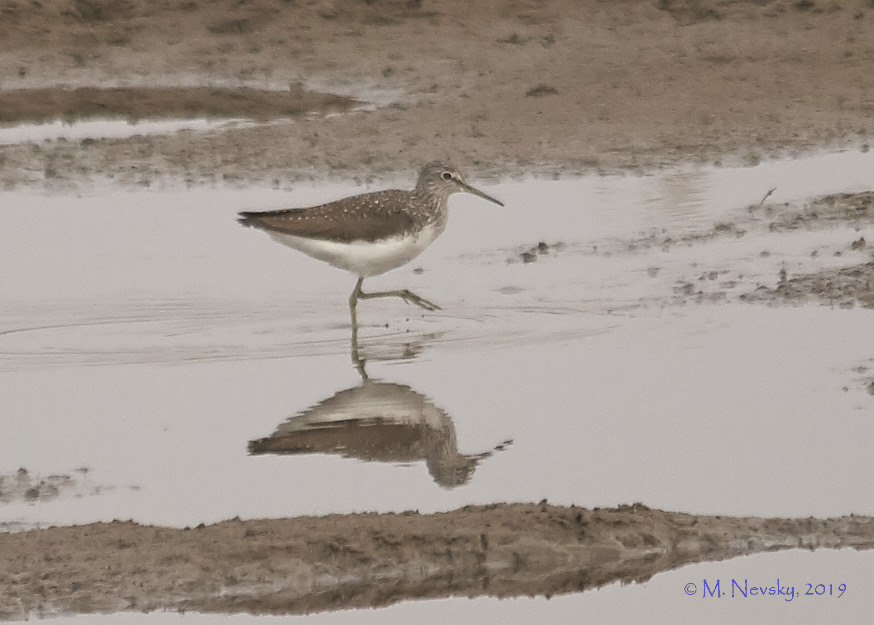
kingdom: Animalia
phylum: Chordata
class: Aves
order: Charadriiformes
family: Scolopacidae
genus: Tringa
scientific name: Tringa ochropus
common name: Green sandpiper
